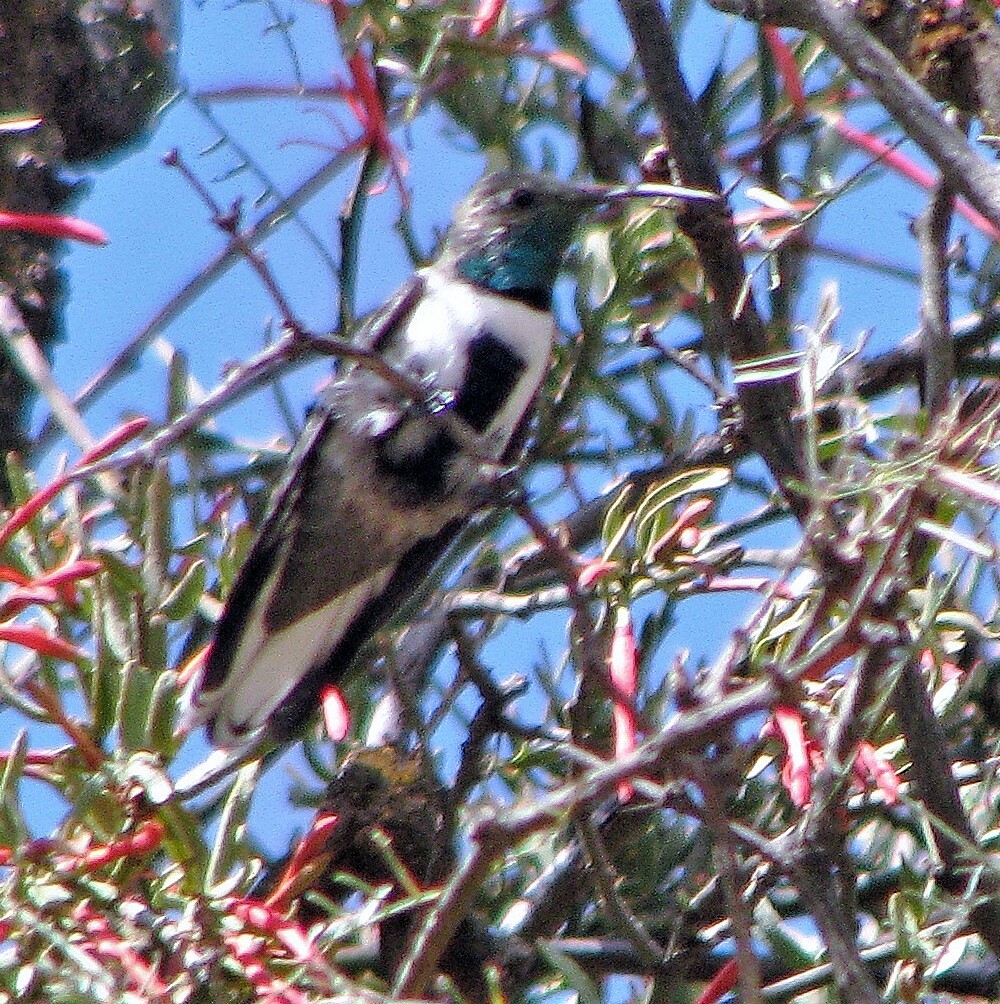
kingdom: Animalia
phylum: Chordata
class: Aves
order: Apodiformes
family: Trochilidae
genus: Oreotrochilus
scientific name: Oreotrochilus leucopleurus
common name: White-sided hillstar
